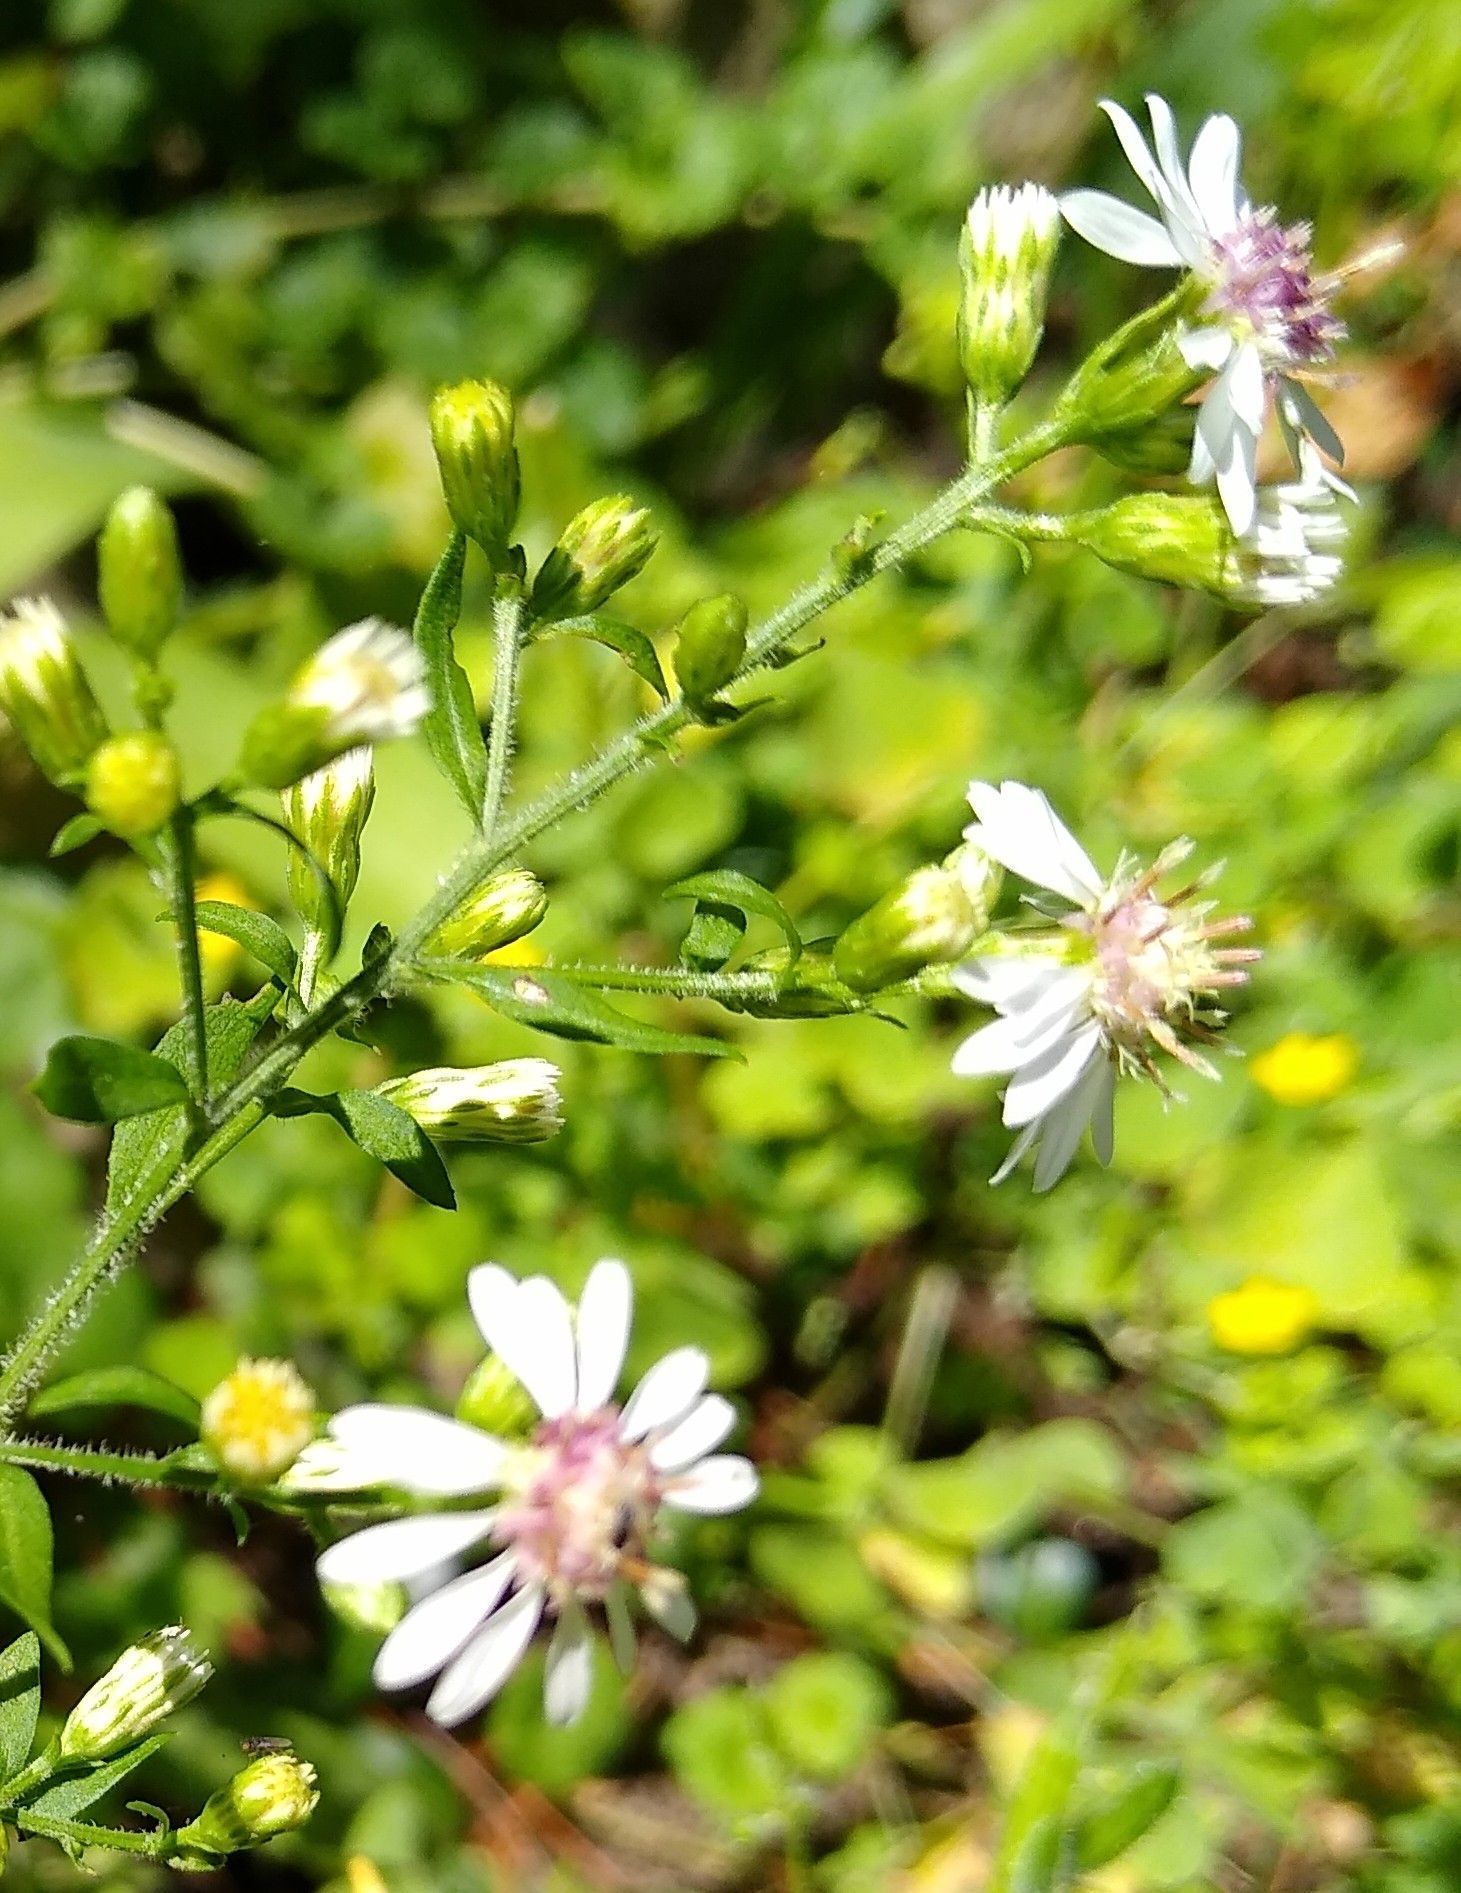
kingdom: Plantae
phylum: Tracheophyta
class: Magnoliopsida
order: Asterales
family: Asteraceae
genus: Symphyotrichum
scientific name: Symphyotrichum lateriflorum
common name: Calico aster
